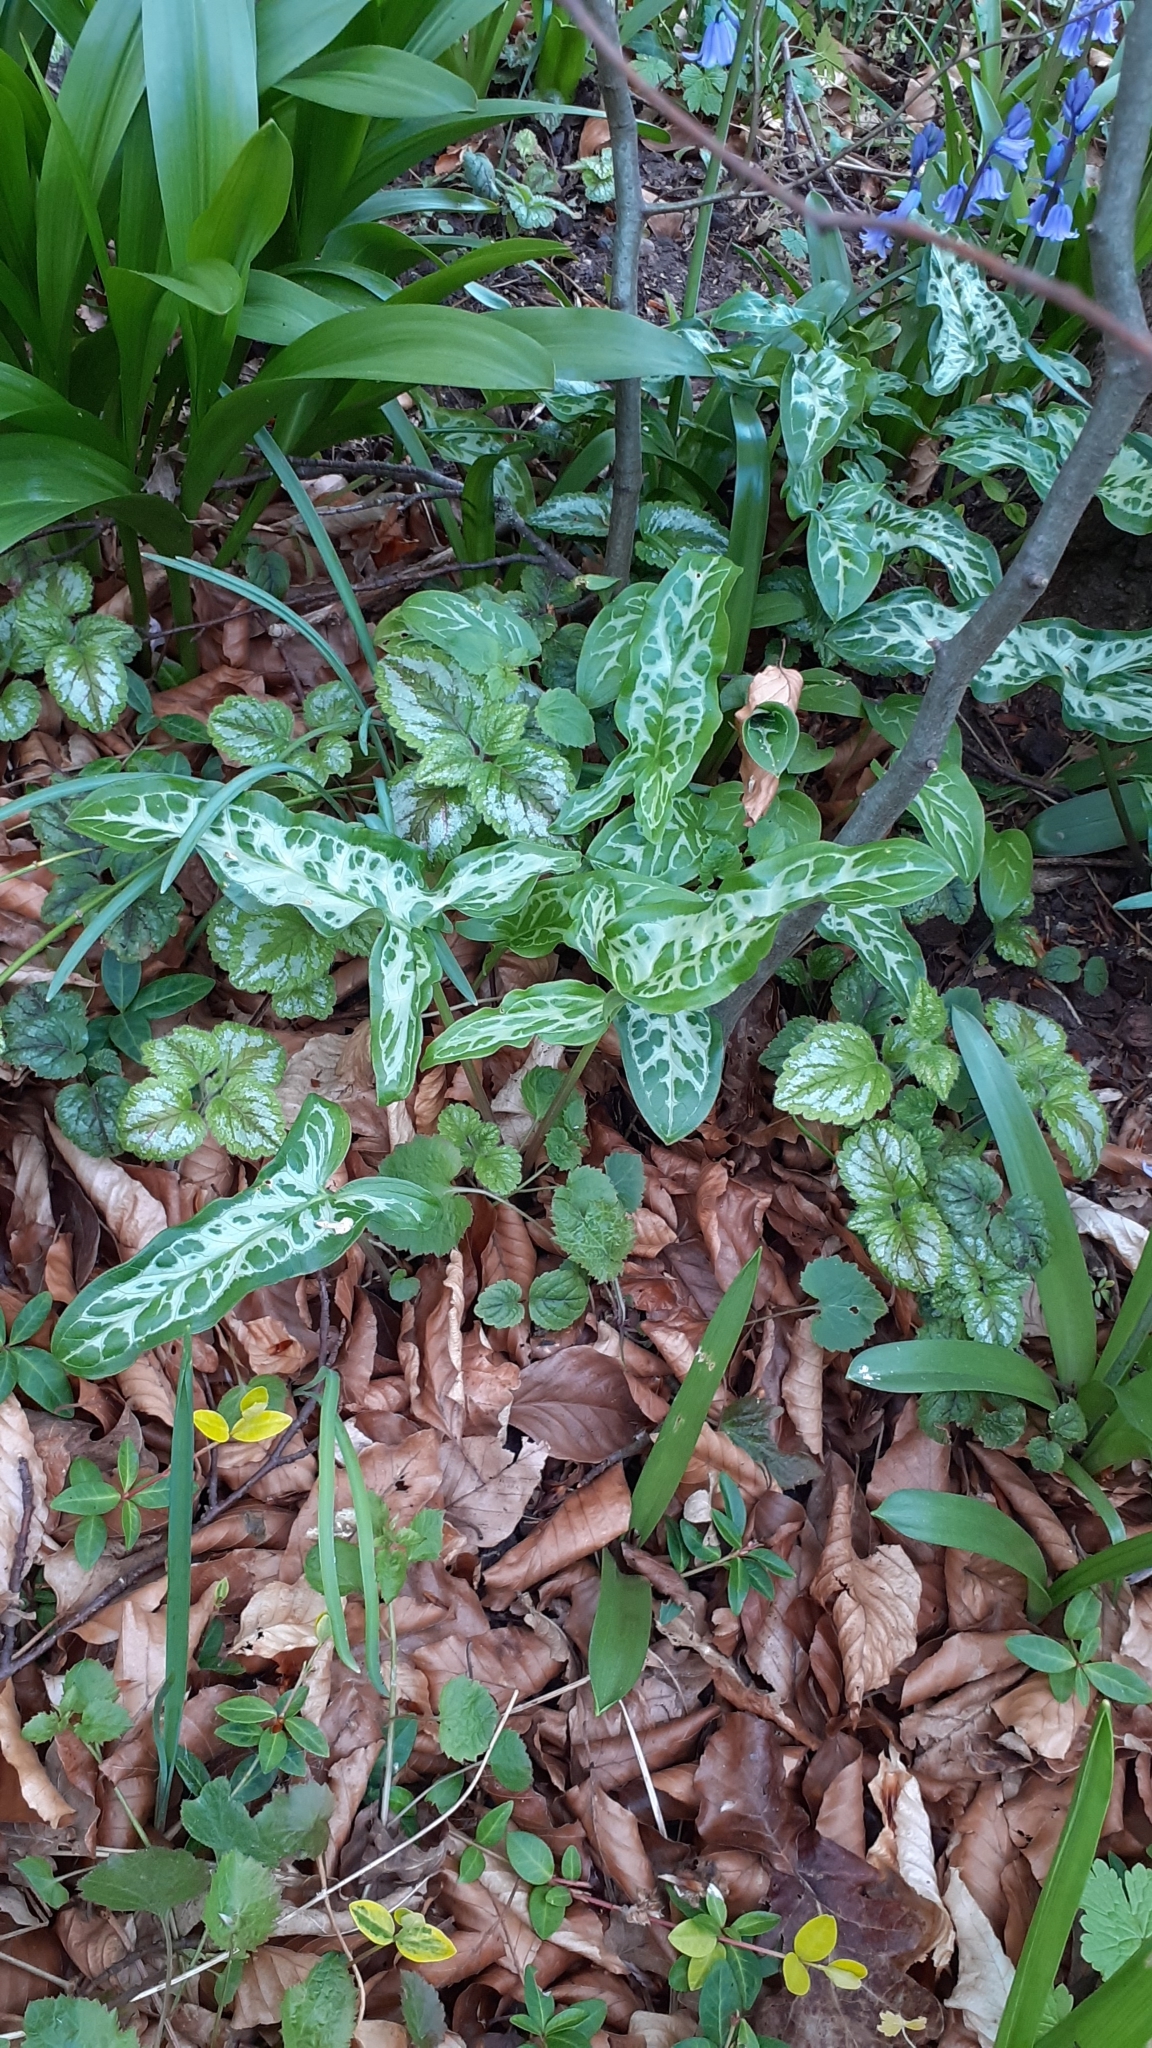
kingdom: Plantae
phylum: Tracheophyta
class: Liliopsida
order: Alismatales
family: Araceae
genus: Arum
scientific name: Arum italicum
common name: Italian lords-and-ladies
